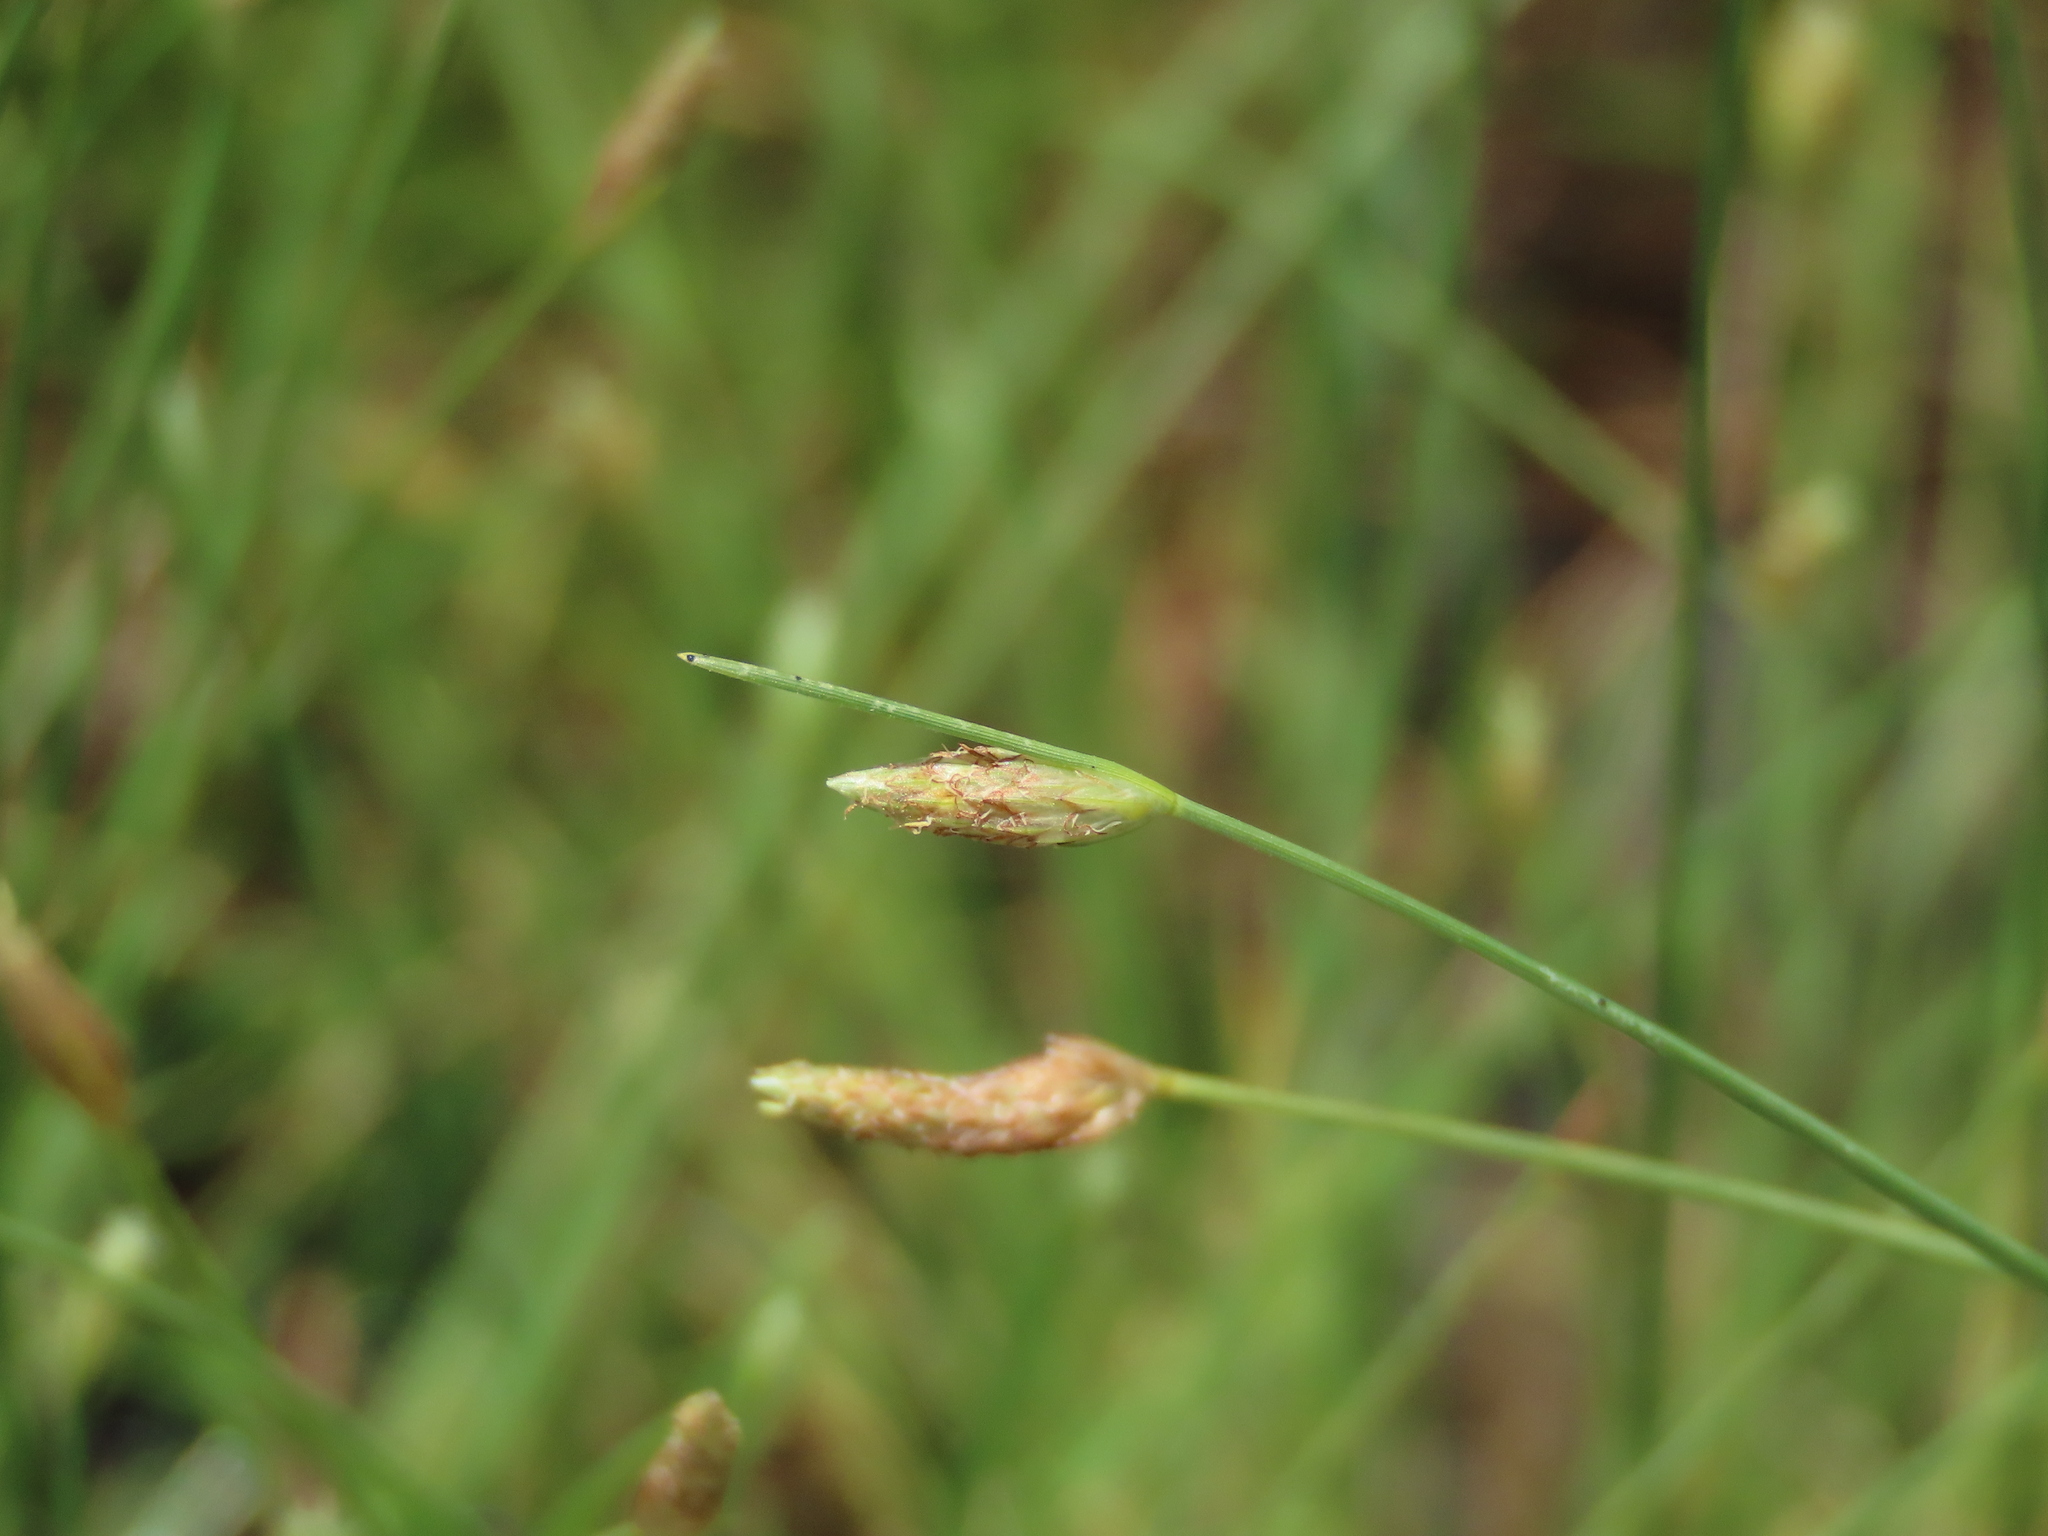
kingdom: Plantae
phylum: Tracheophyta
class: Liliopsida
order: Poales
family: Cyperaceae
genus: Fimbristylis
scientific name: Fimbristylis polytrichoides
